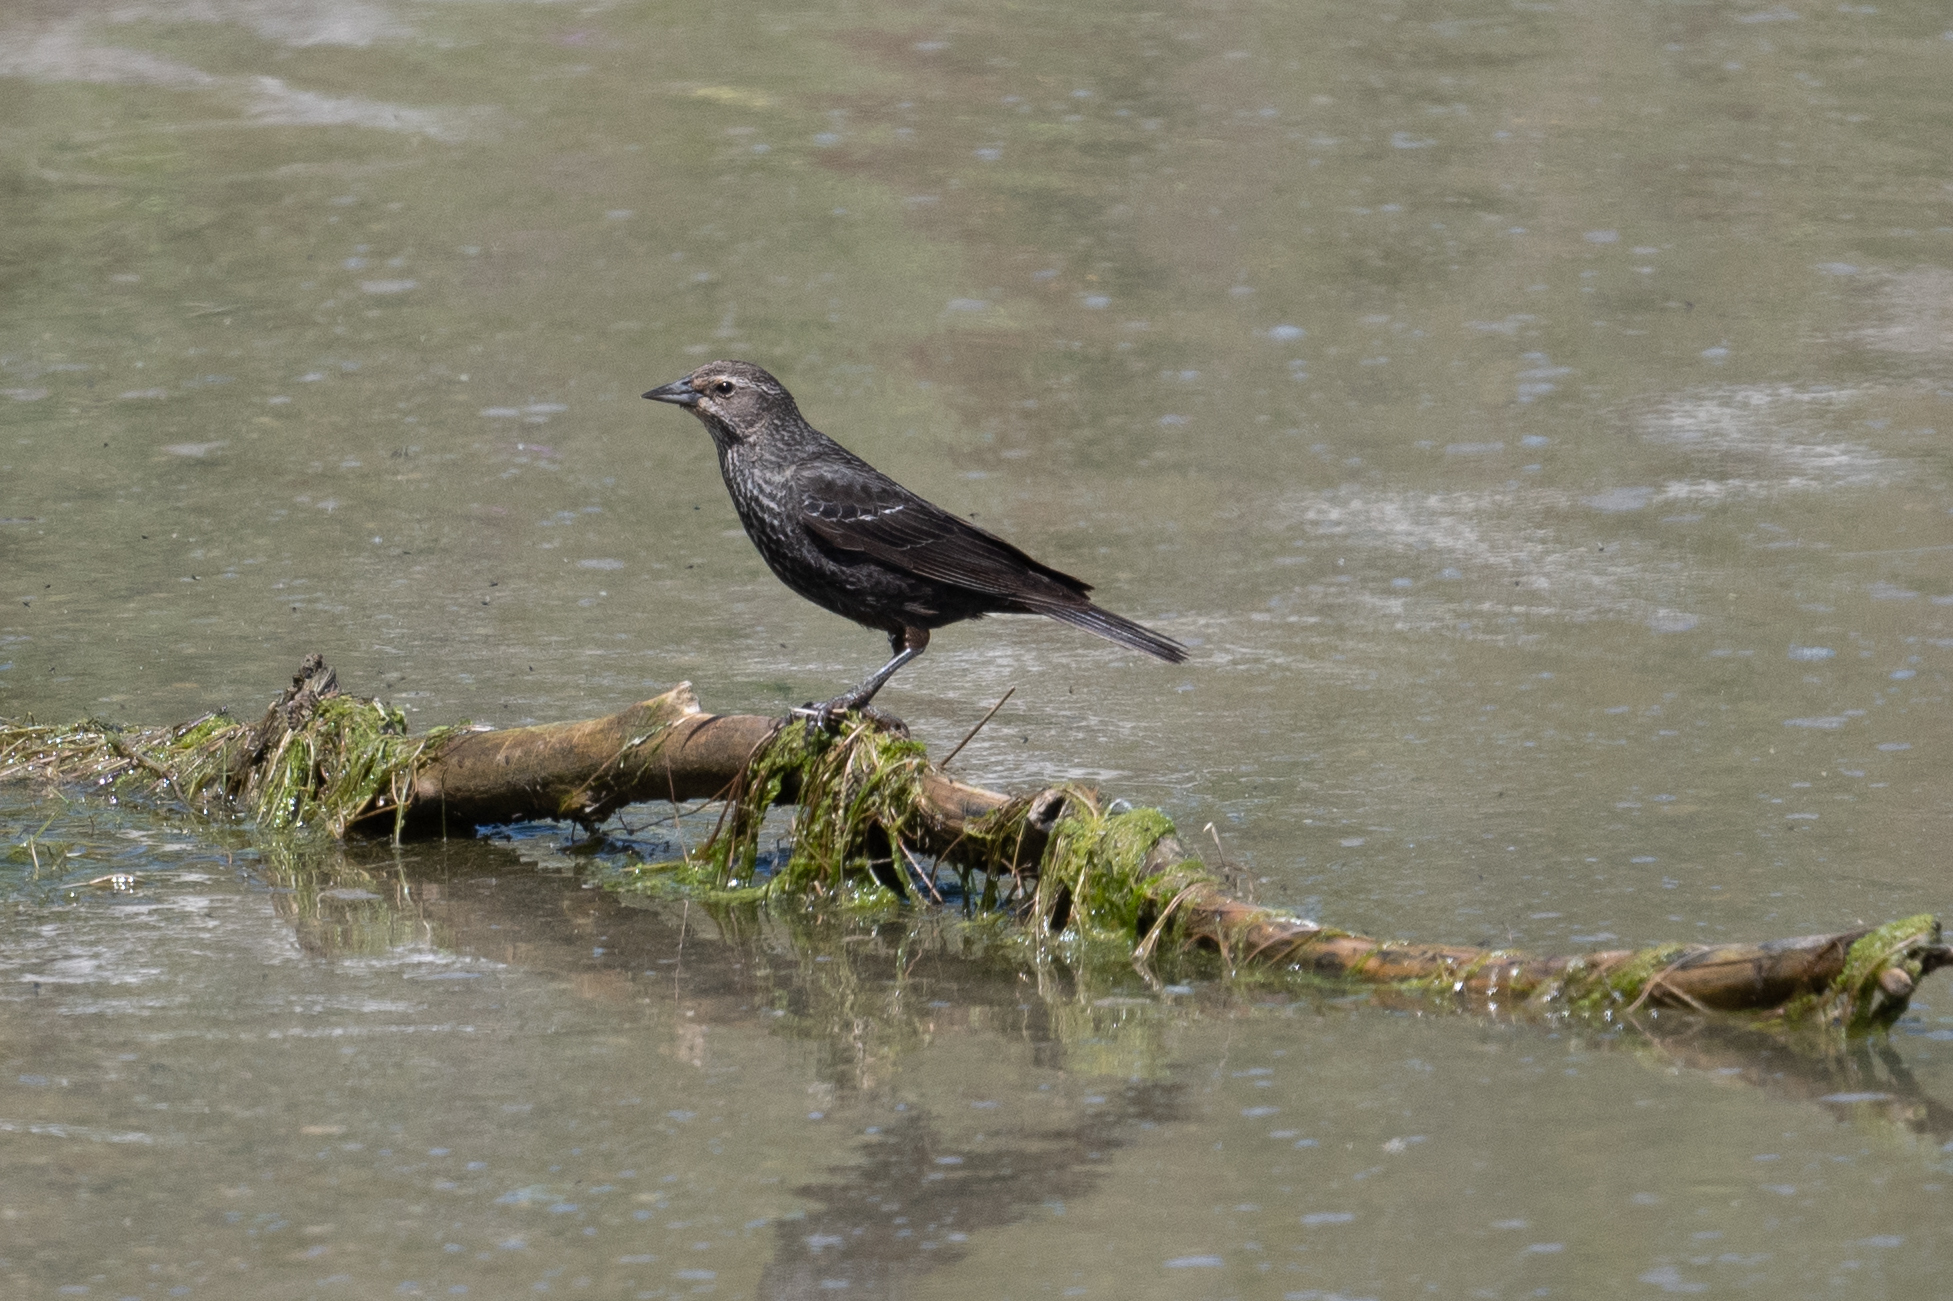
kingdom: Animalia
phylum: Chordata
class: Aves
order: Passeriformes
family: Icteridae
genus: Agelaius
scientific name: Agelaius tricolor
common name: Tricolored blackbird
